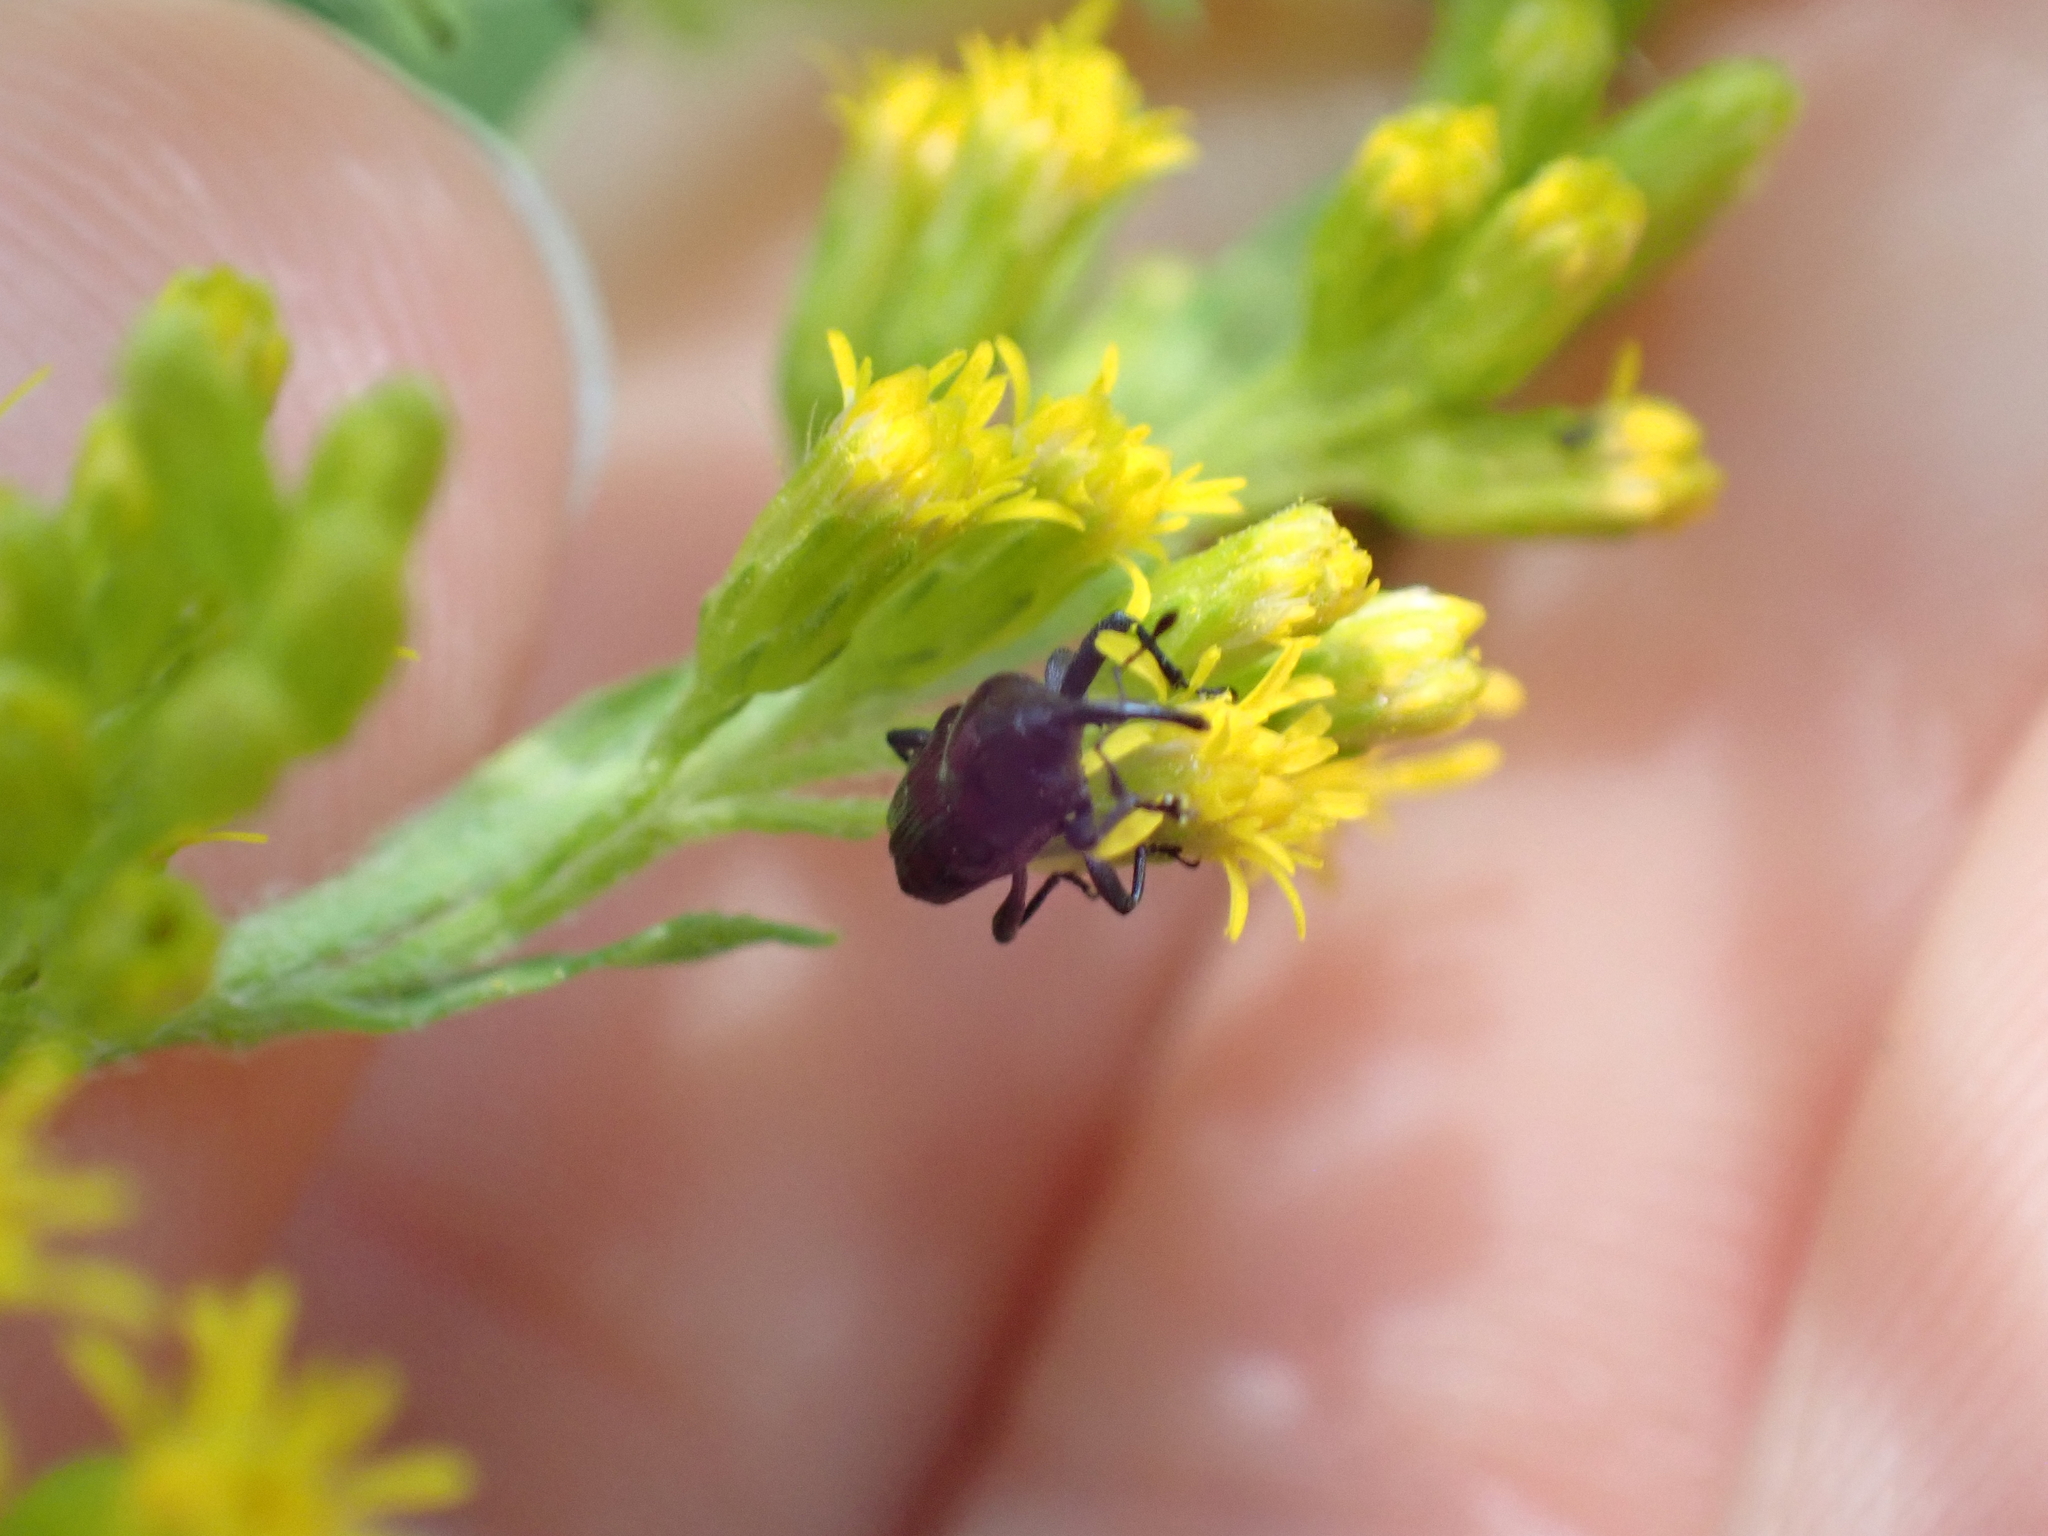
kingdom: Animalia
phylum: Arthropoda
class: Insecta
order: Coleoptera
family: Curculionidae
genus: Madarellus
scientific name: Madarellus undulatus
